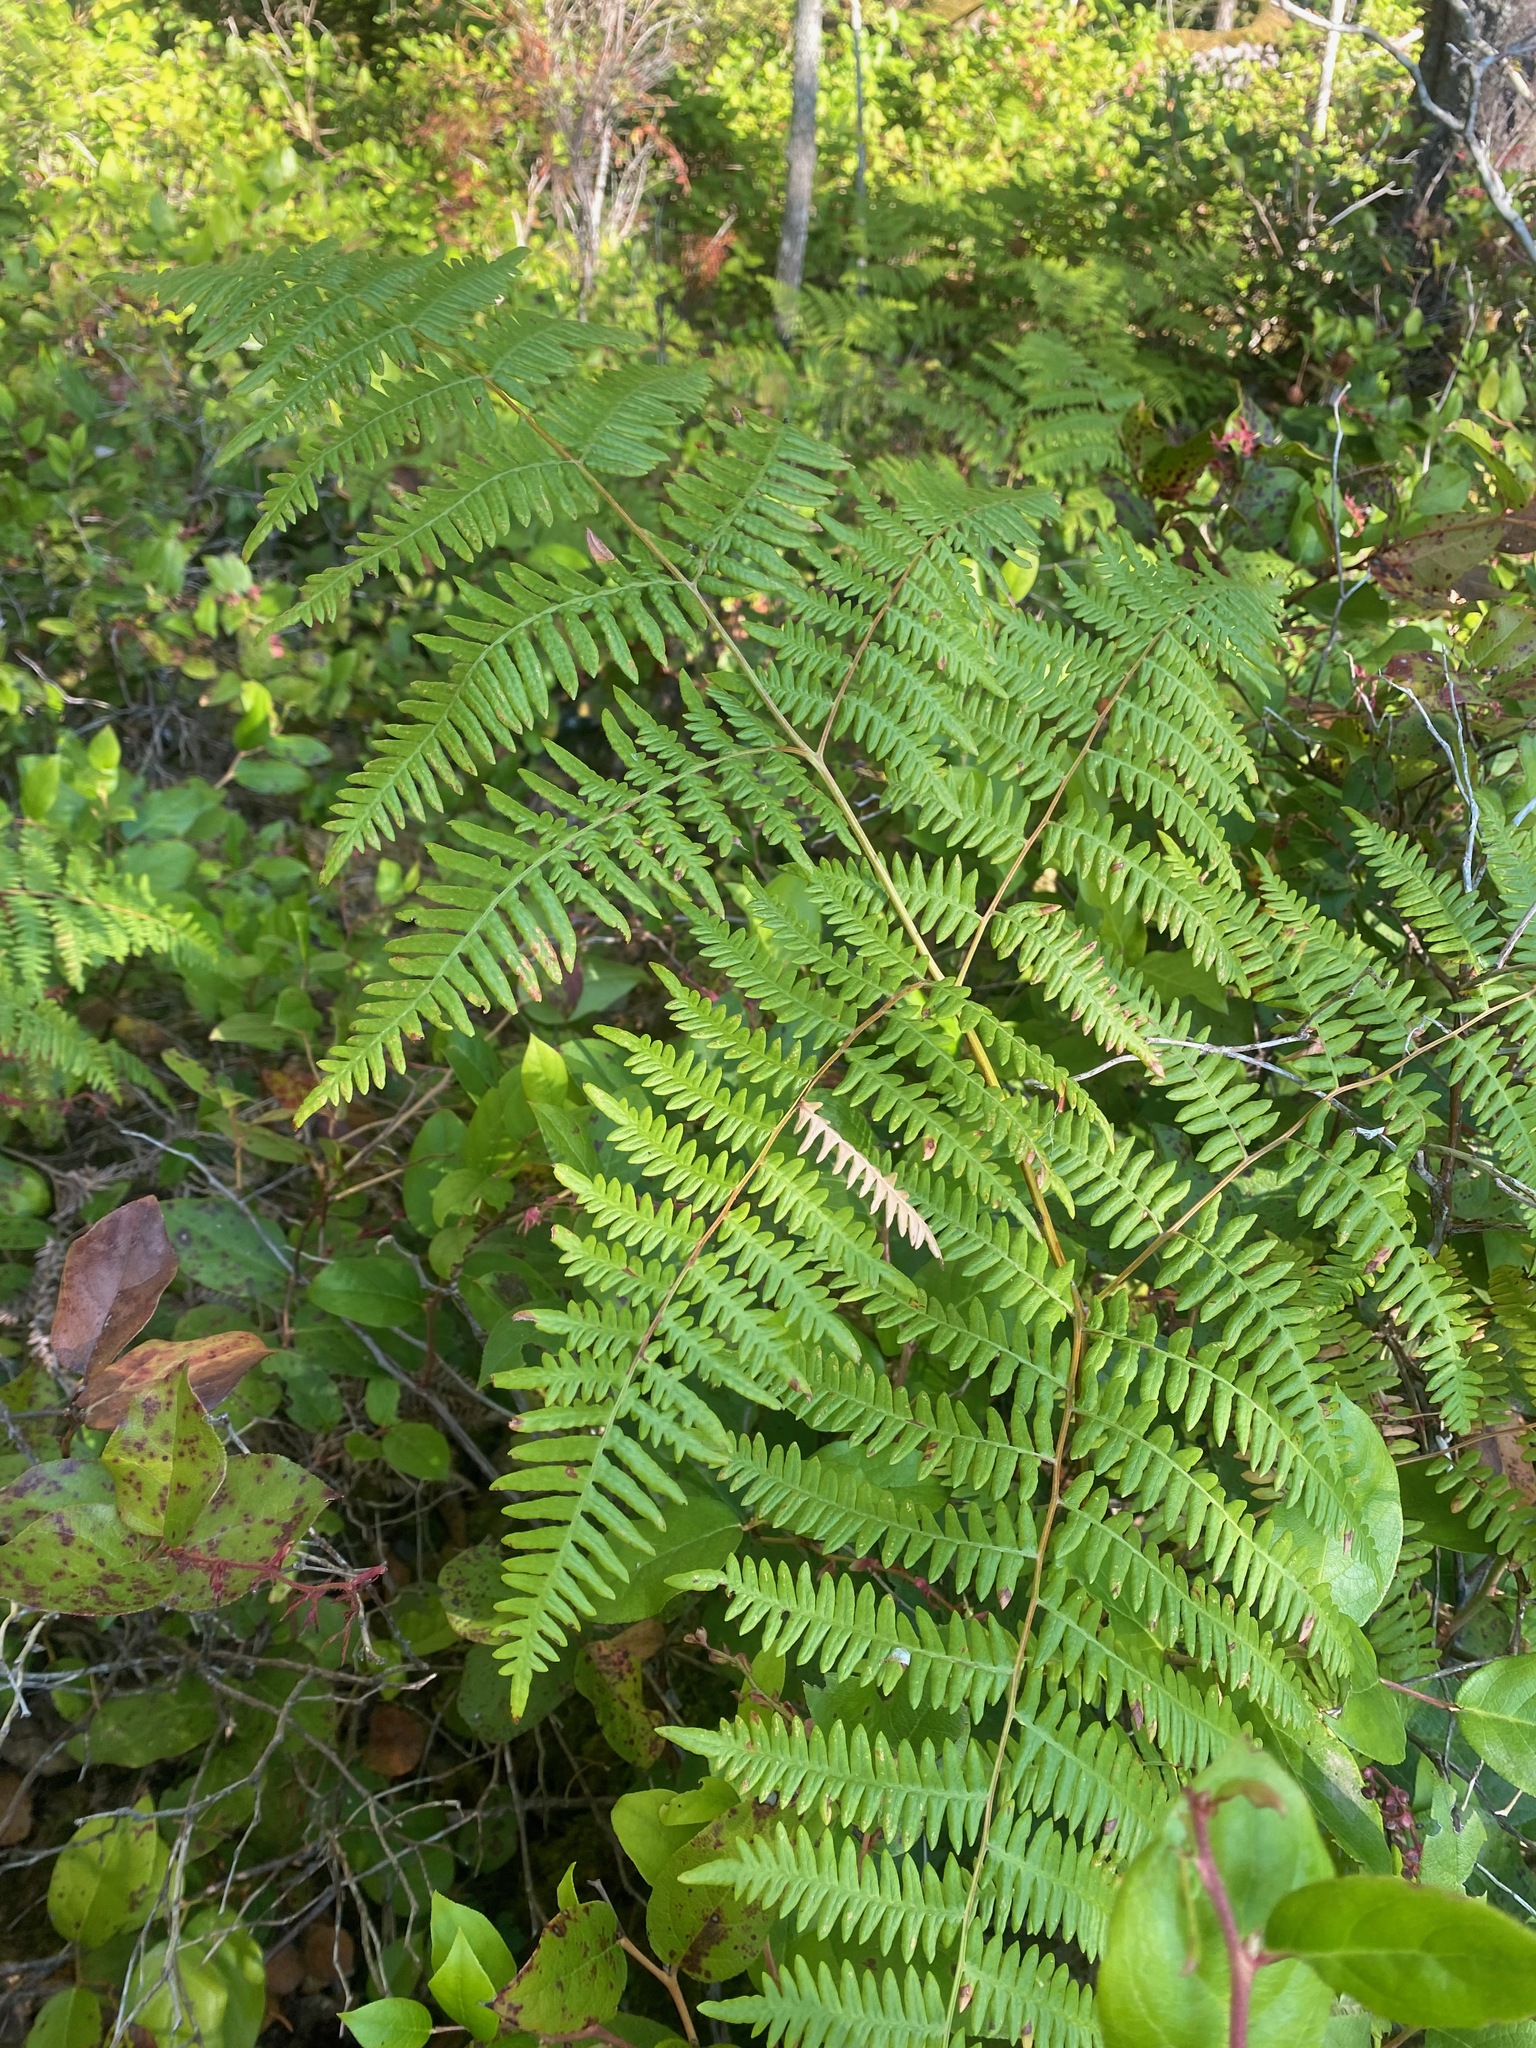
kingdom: Plantae
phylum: Tracheophyta
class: Polypodiopsida
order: Polypodiales
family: Dennstaedtiaceae
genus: Pteridium
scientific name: Pteridium aquilinum
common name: Bracken
